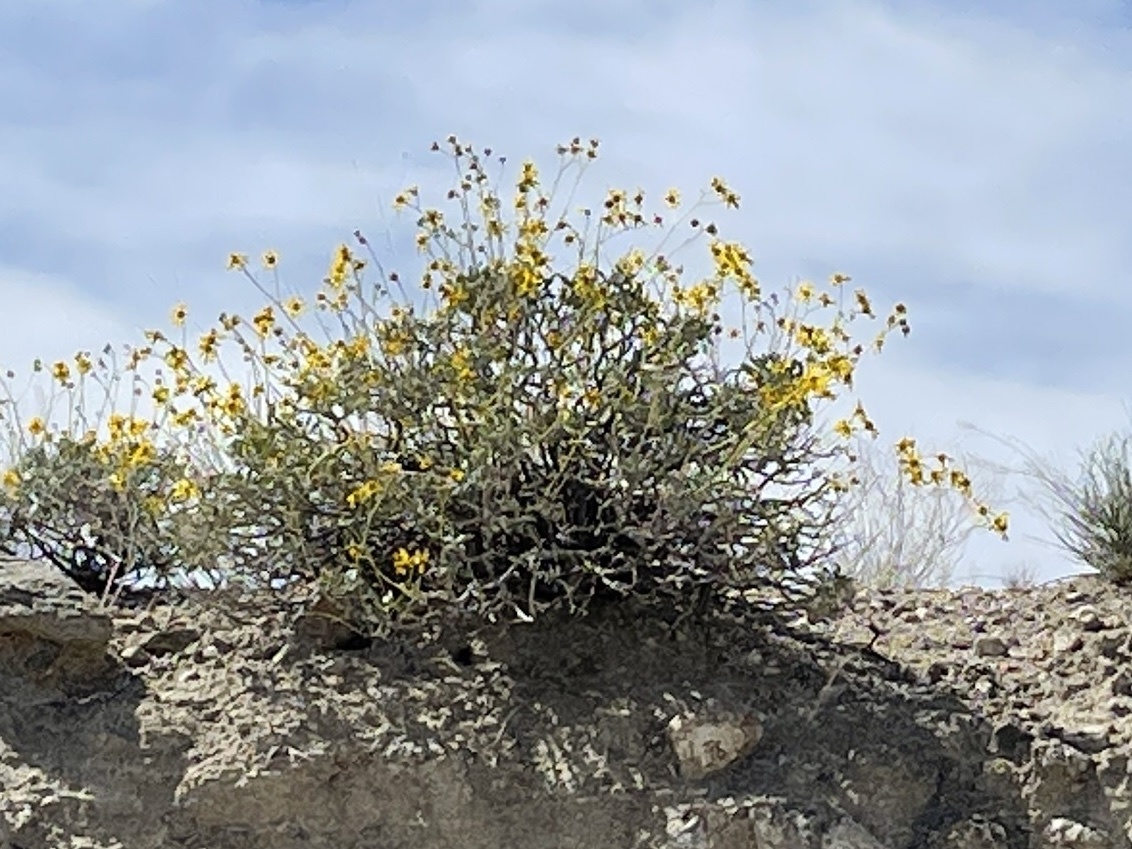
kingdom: Plantae
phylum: Tracheophyta
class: Magnoliopsida
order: Asterales
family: Asteraceae
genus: Encelia
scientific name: Encelia farinosa
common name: Brittlebush
